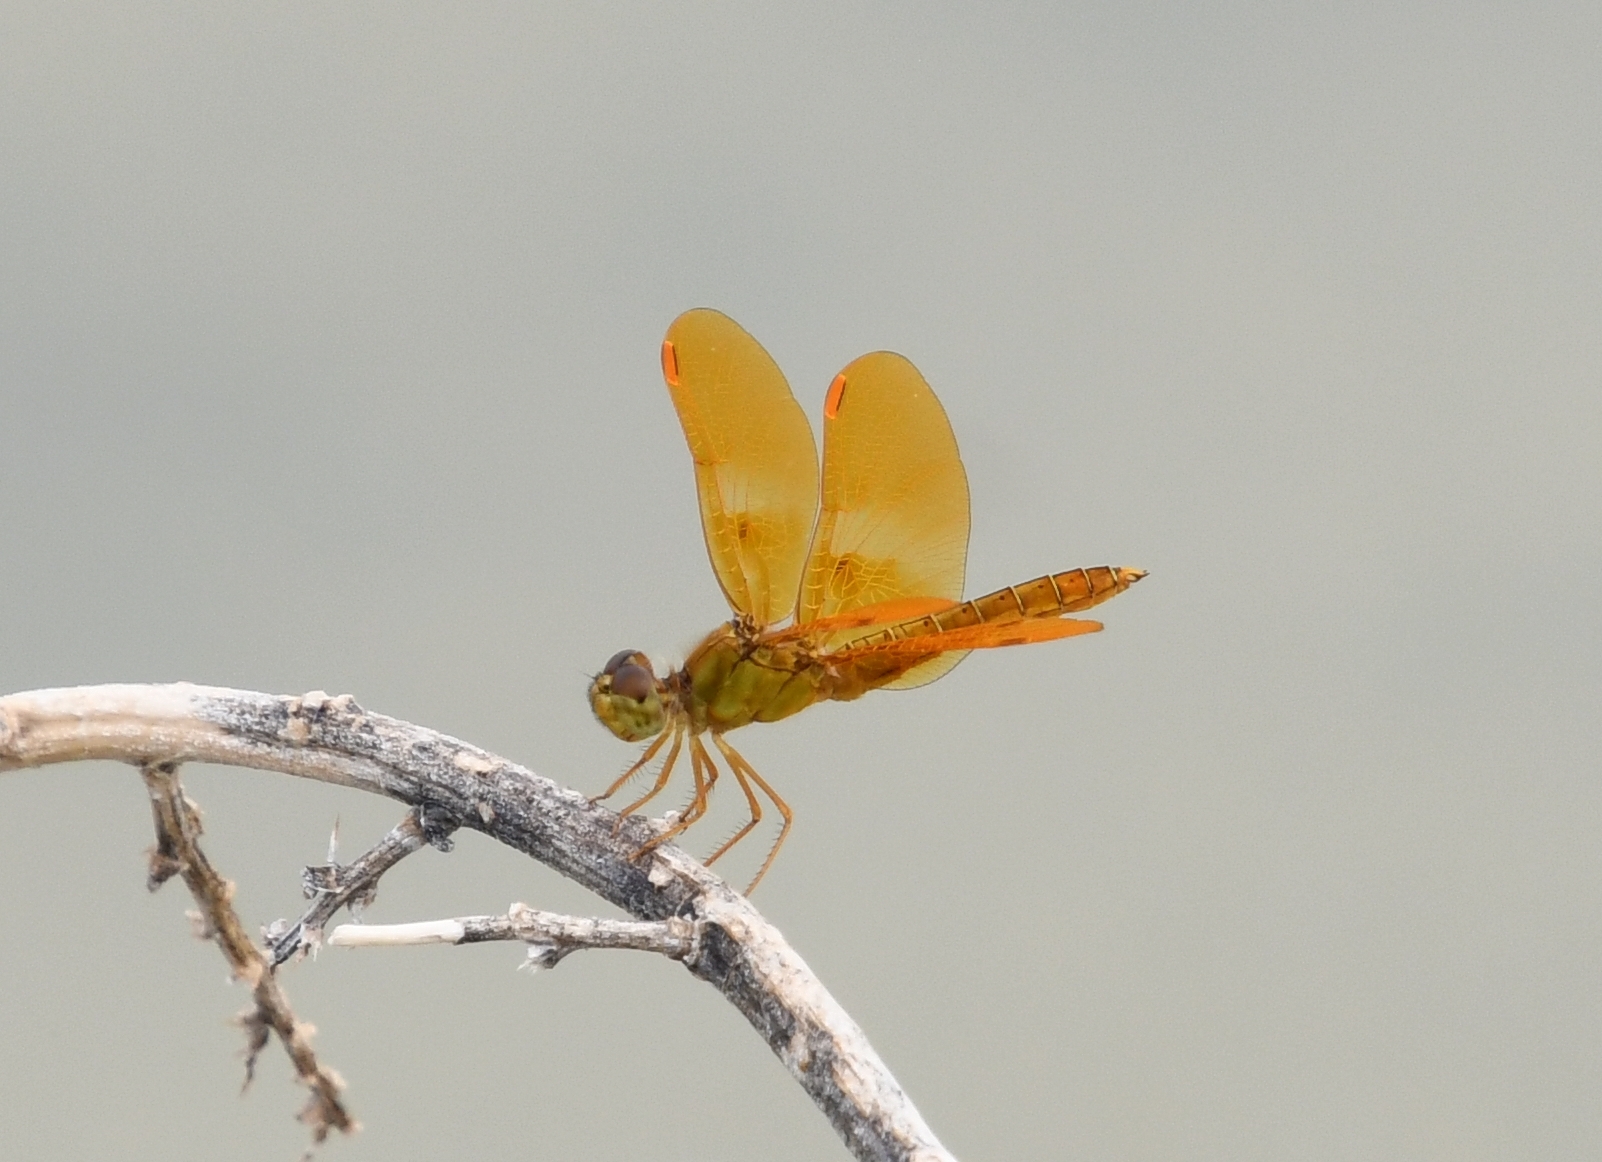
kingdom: Animalia
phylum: Arthropoda
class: Insecta
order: Odonata
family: Libellulidae
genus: Perithemis
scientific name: Perithemis intensa
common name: Mexican amberwing
